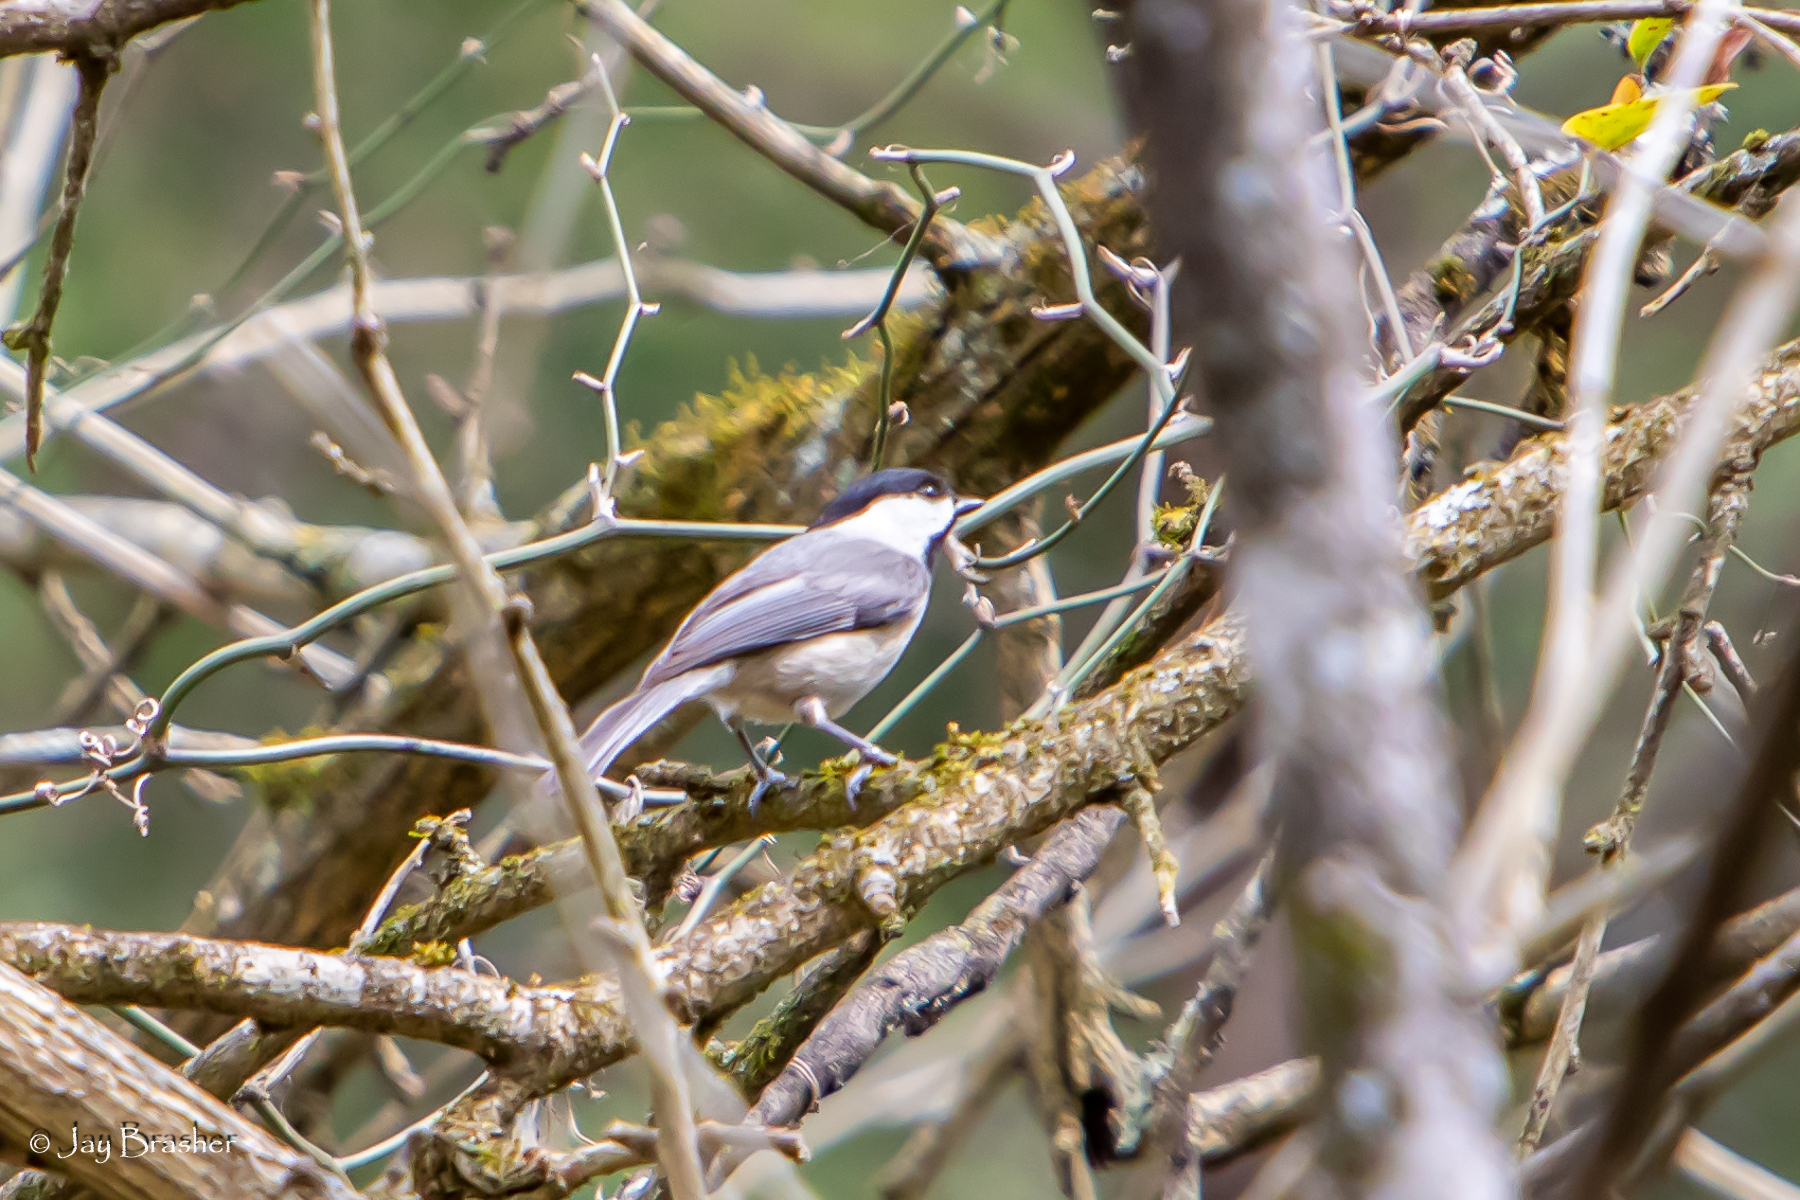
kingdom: Animalia
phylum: Chordata
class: Aves
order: Passeriformes
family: Paridae
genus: Poecile
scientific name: Poecile carolinensis
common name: Carolina chickadee
